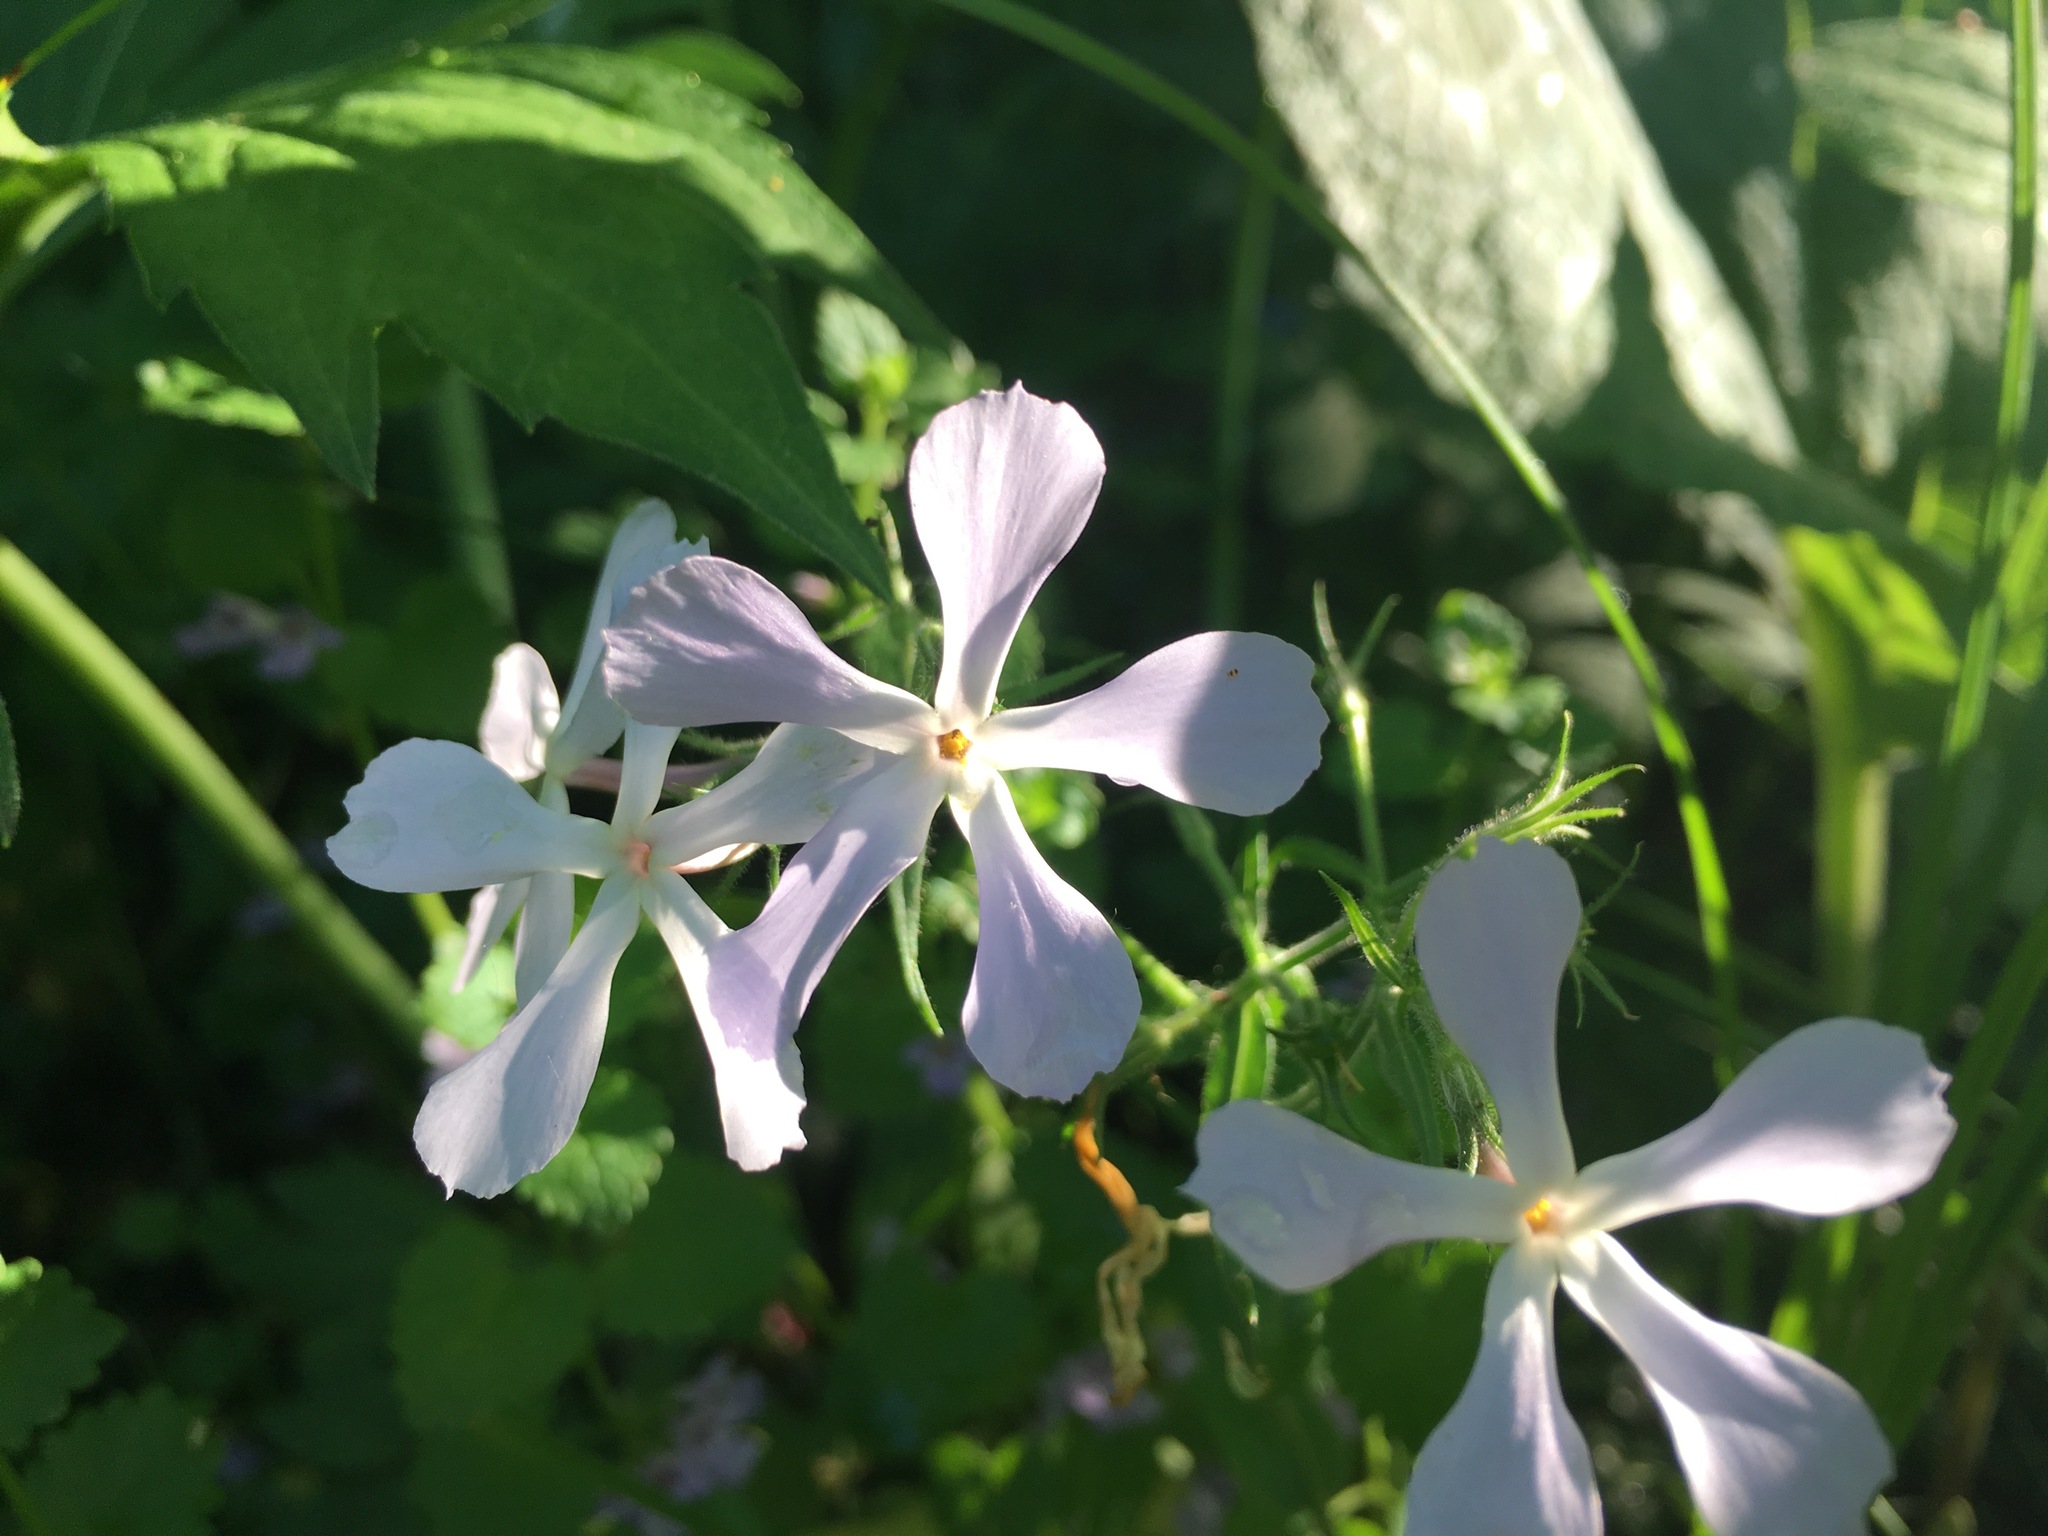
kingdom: Plantae
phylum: Tracheophyta
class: Magnoliopsida
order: Ericales
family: Polemoniaceae
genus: Phlox
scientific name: Phlox divaricata
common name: Blue phlox
